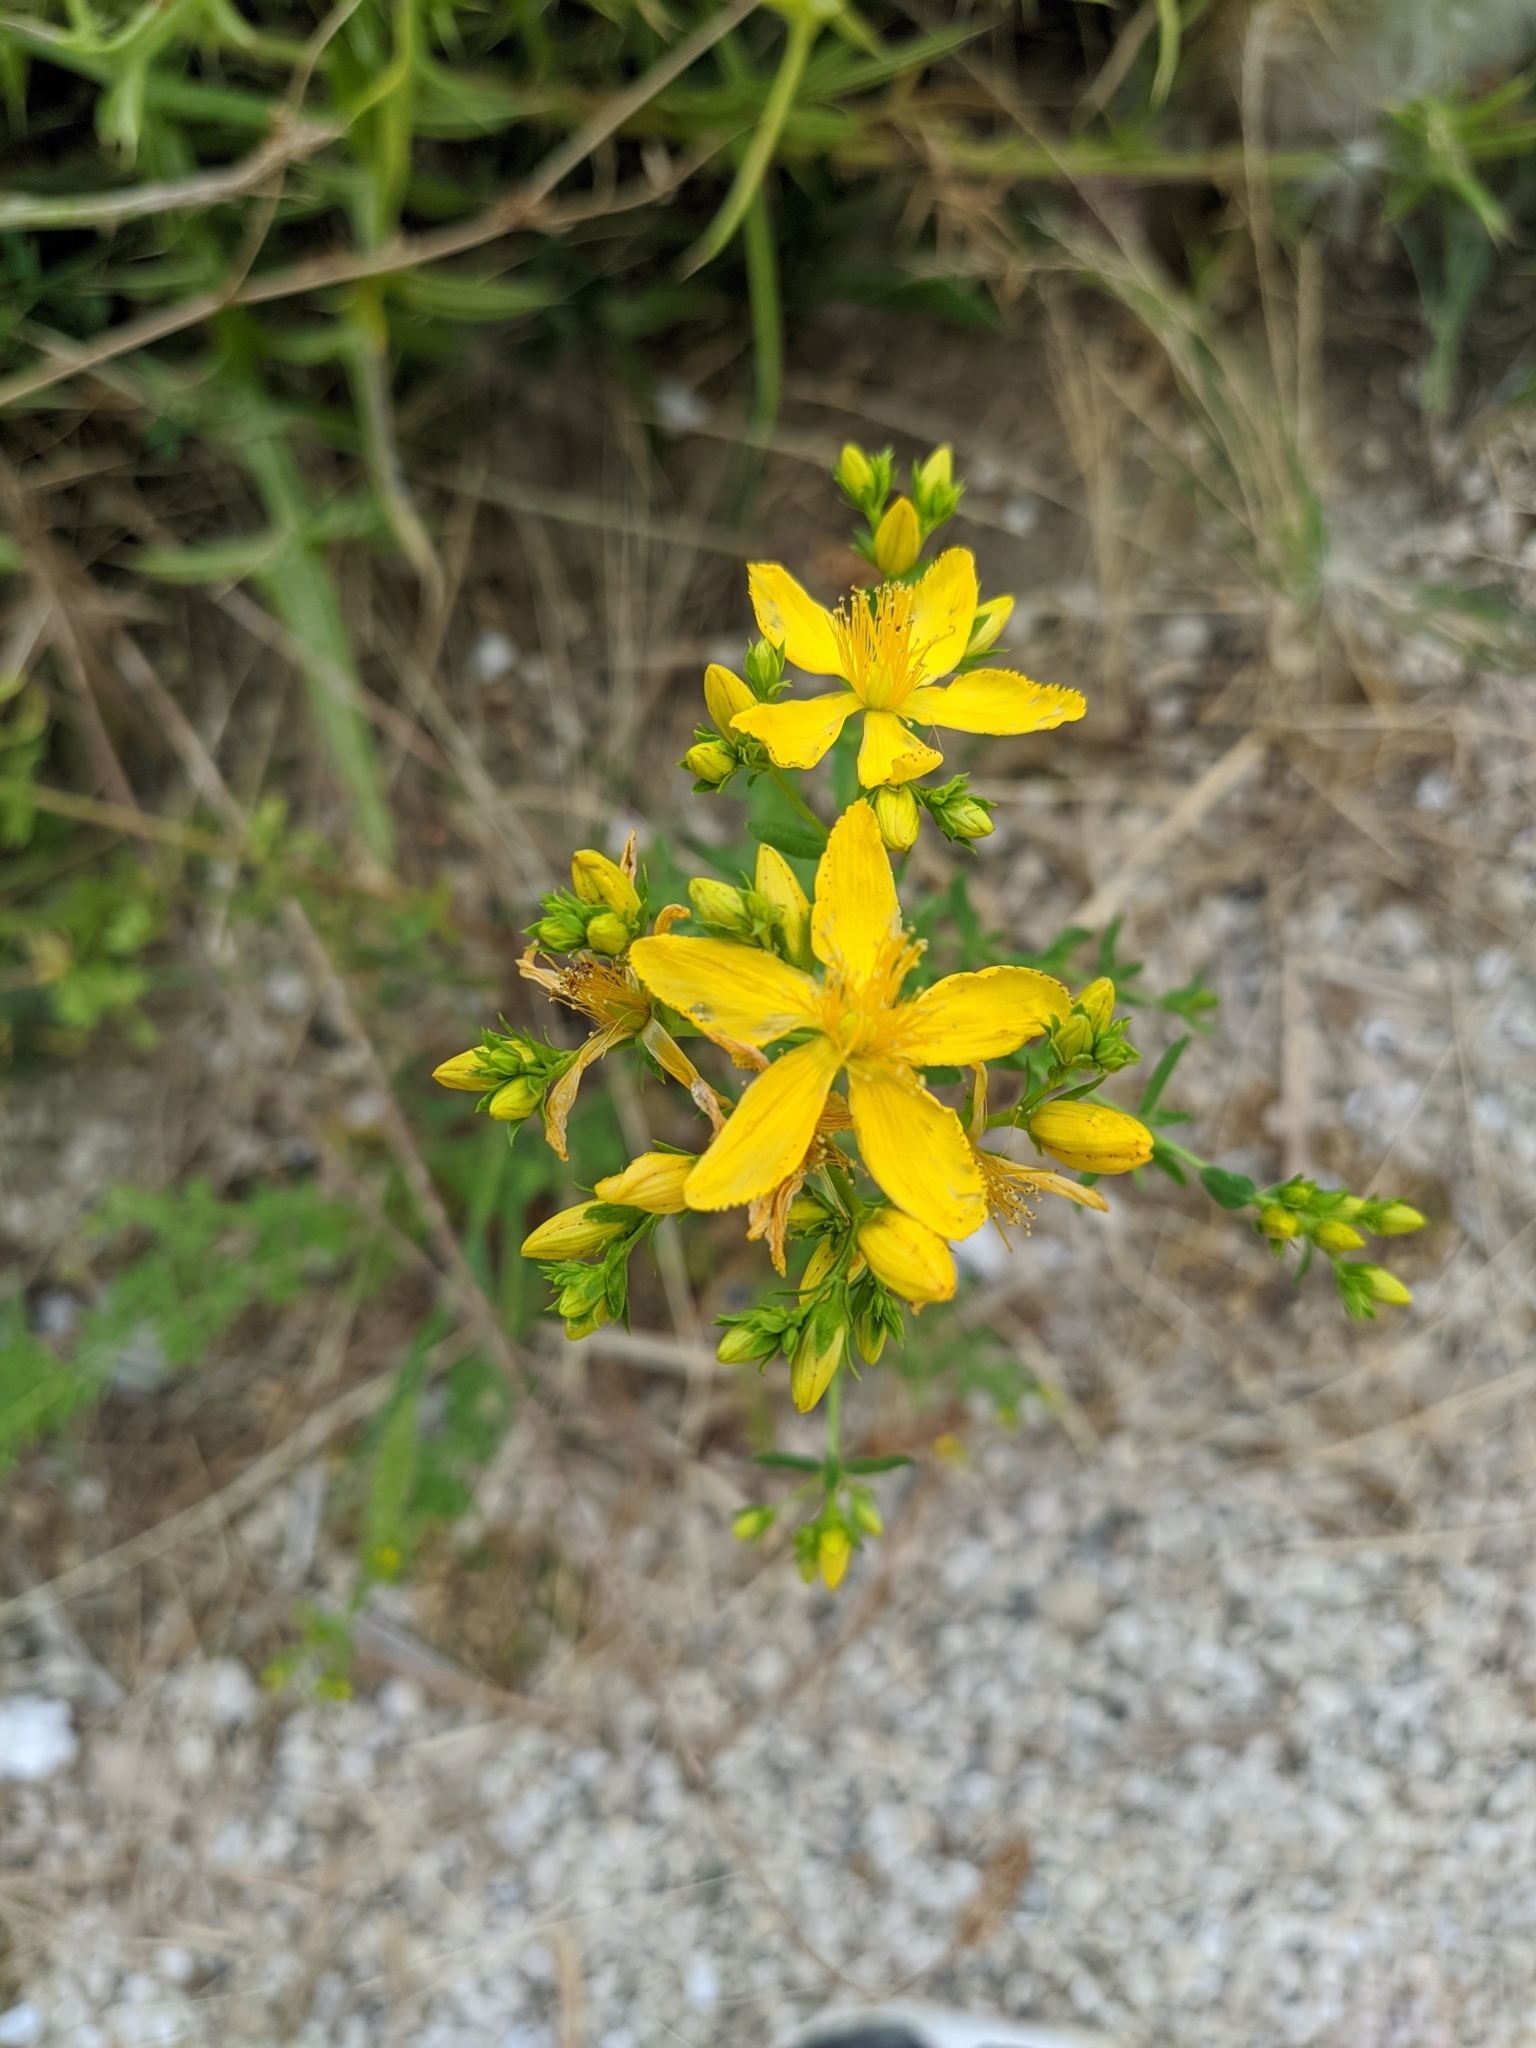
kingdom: Plantae
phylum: Tracheophyta
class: Magnoliopsida
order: Malpighiales
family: Hypericaceae
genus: Hypericum
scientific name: Hypericum perforatum
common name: Common st. johnswort
